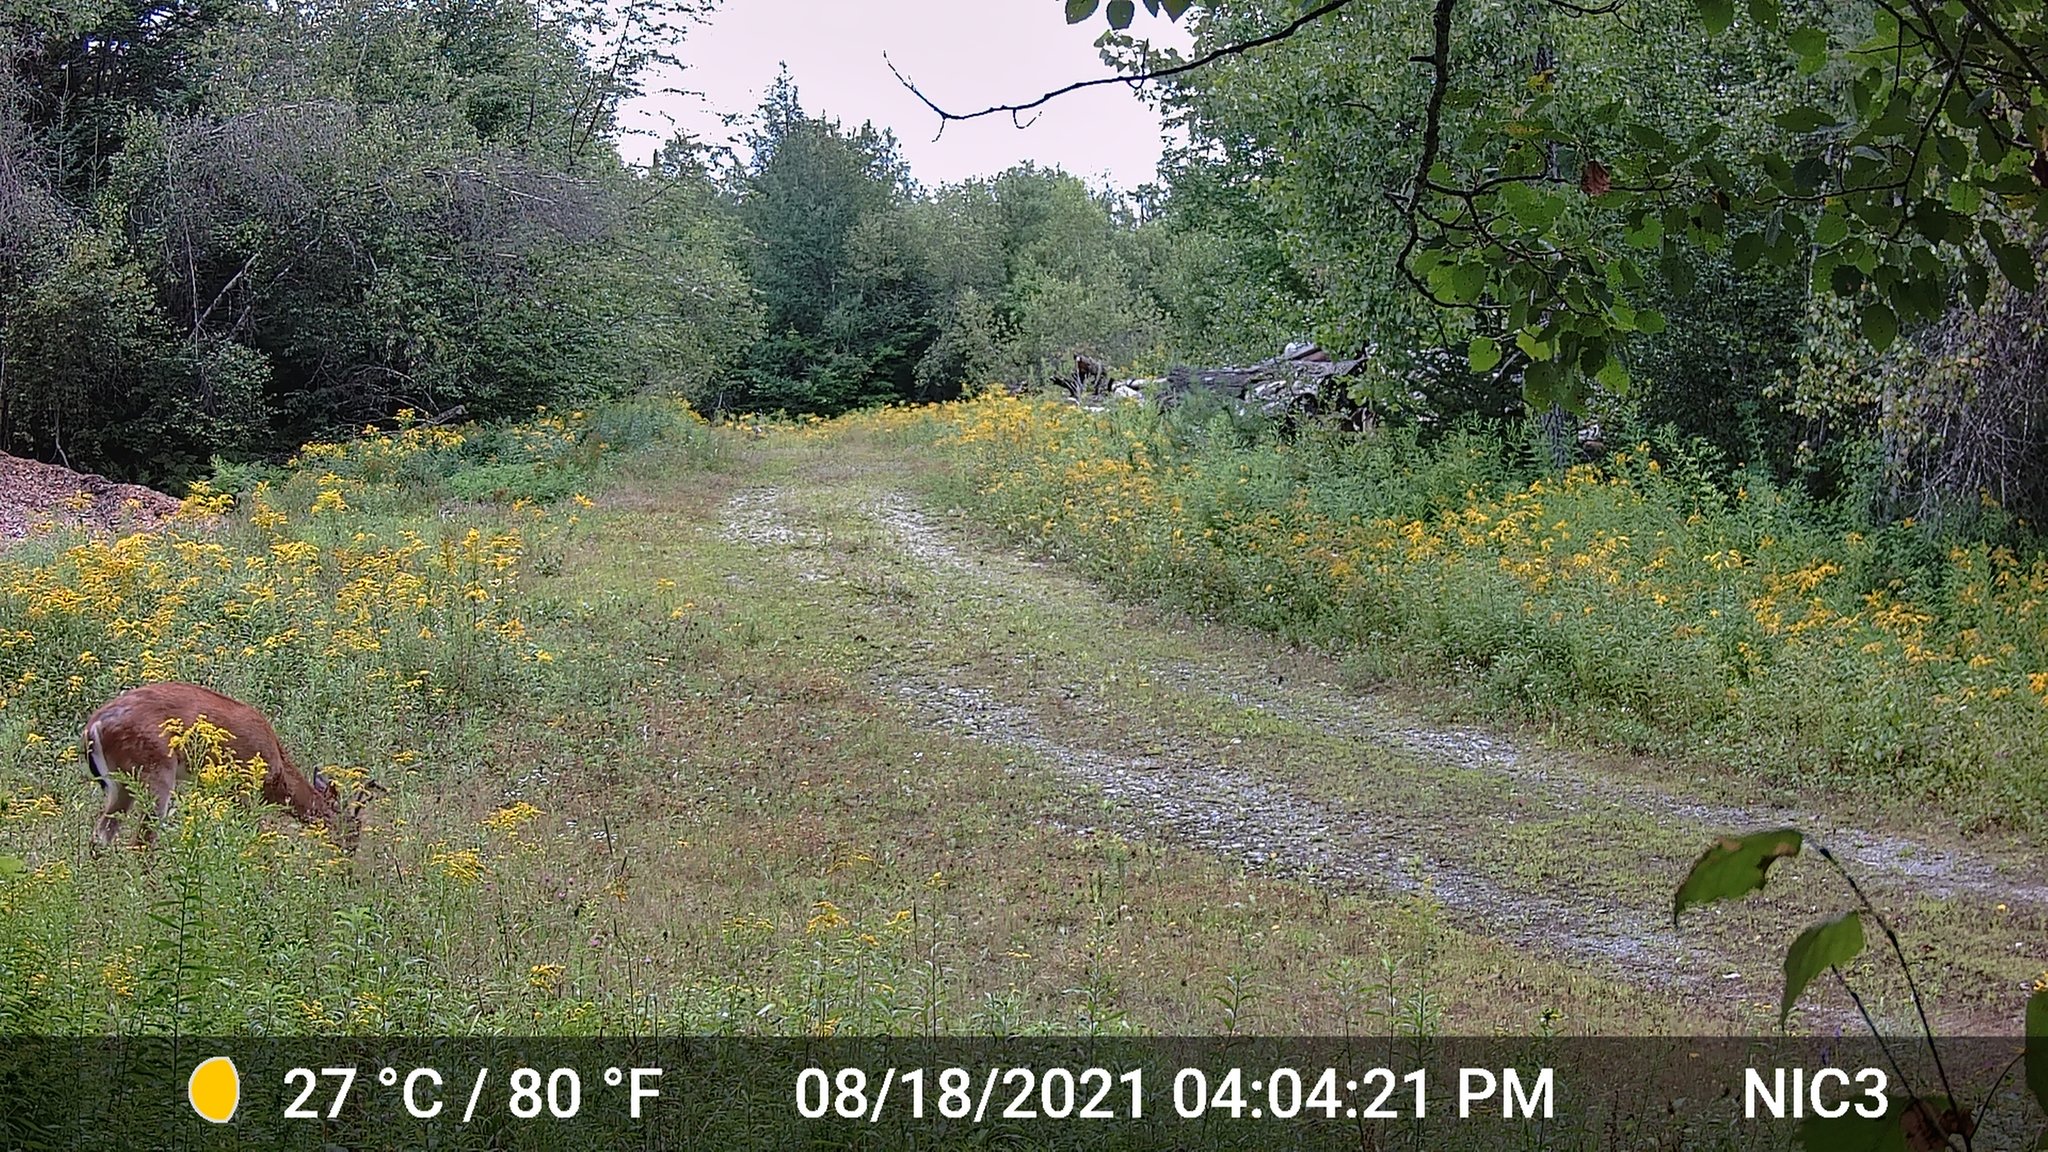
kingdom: Animalia
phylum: Chordata
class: Mammalia
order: Artiodactyla
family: Cervidae
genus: Odocoileus
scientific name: Odocoileus virginianus
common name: White-tailed deer
